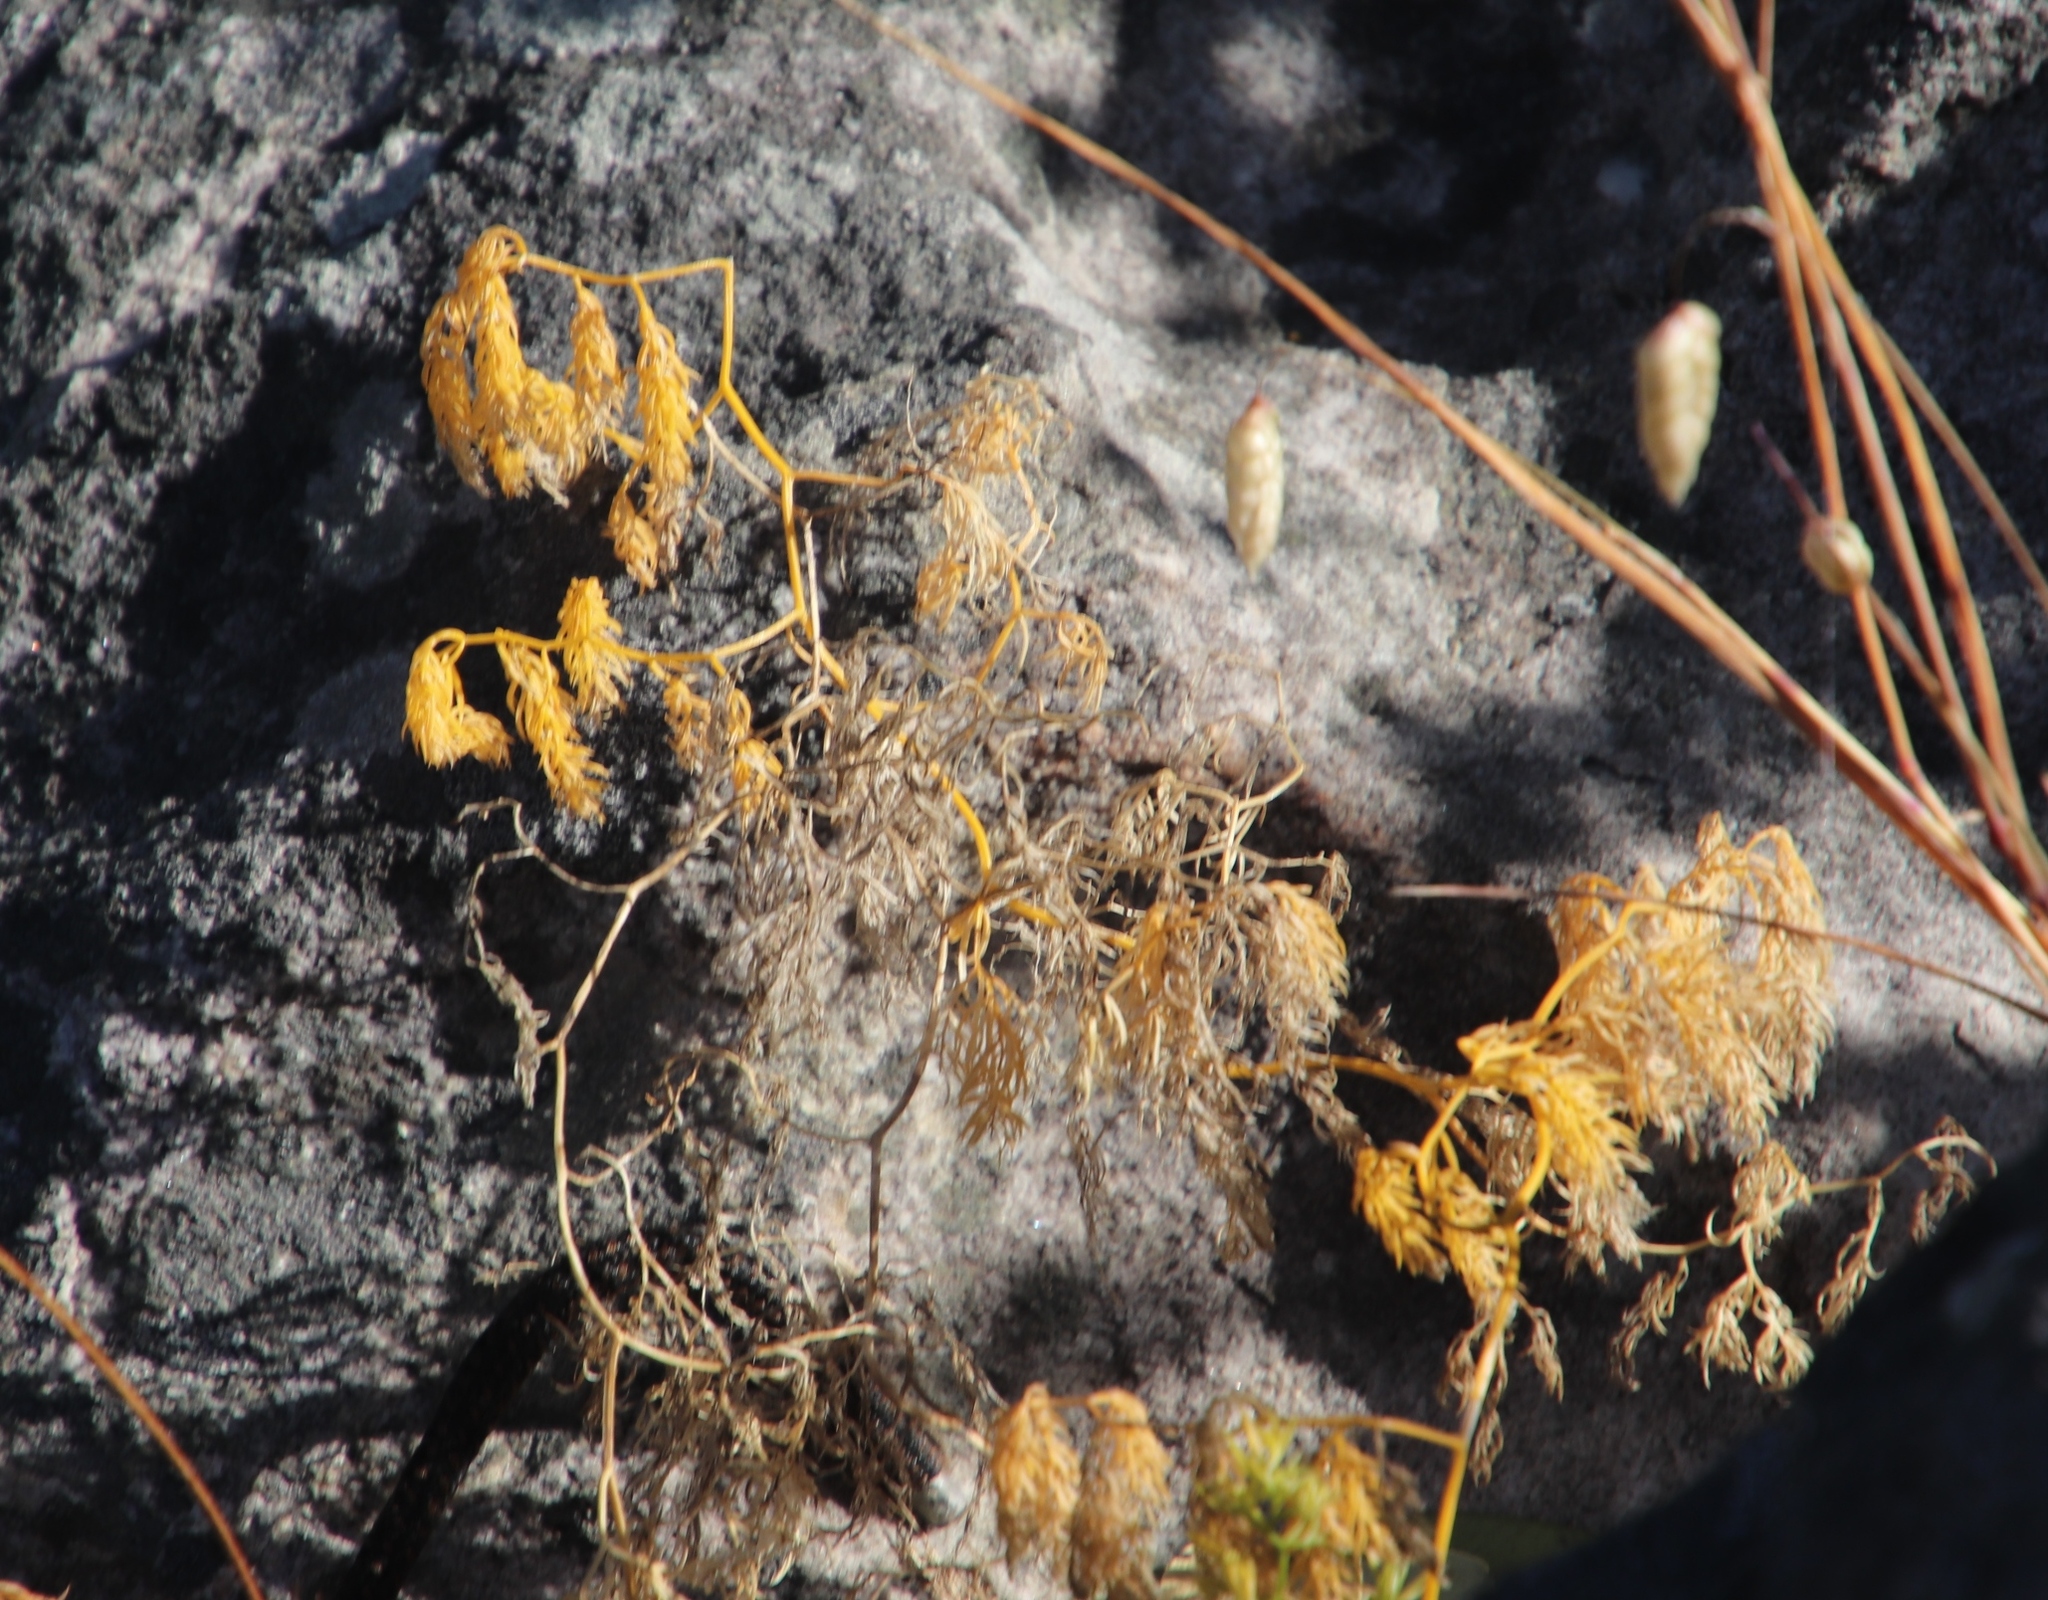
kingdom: Plantae
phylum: Tracheophyta
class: Liliopsida
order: Asparagales
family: Asparagaceae
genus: Asparagus
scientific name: Asparagus declinatus
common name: Bridal-creeper
